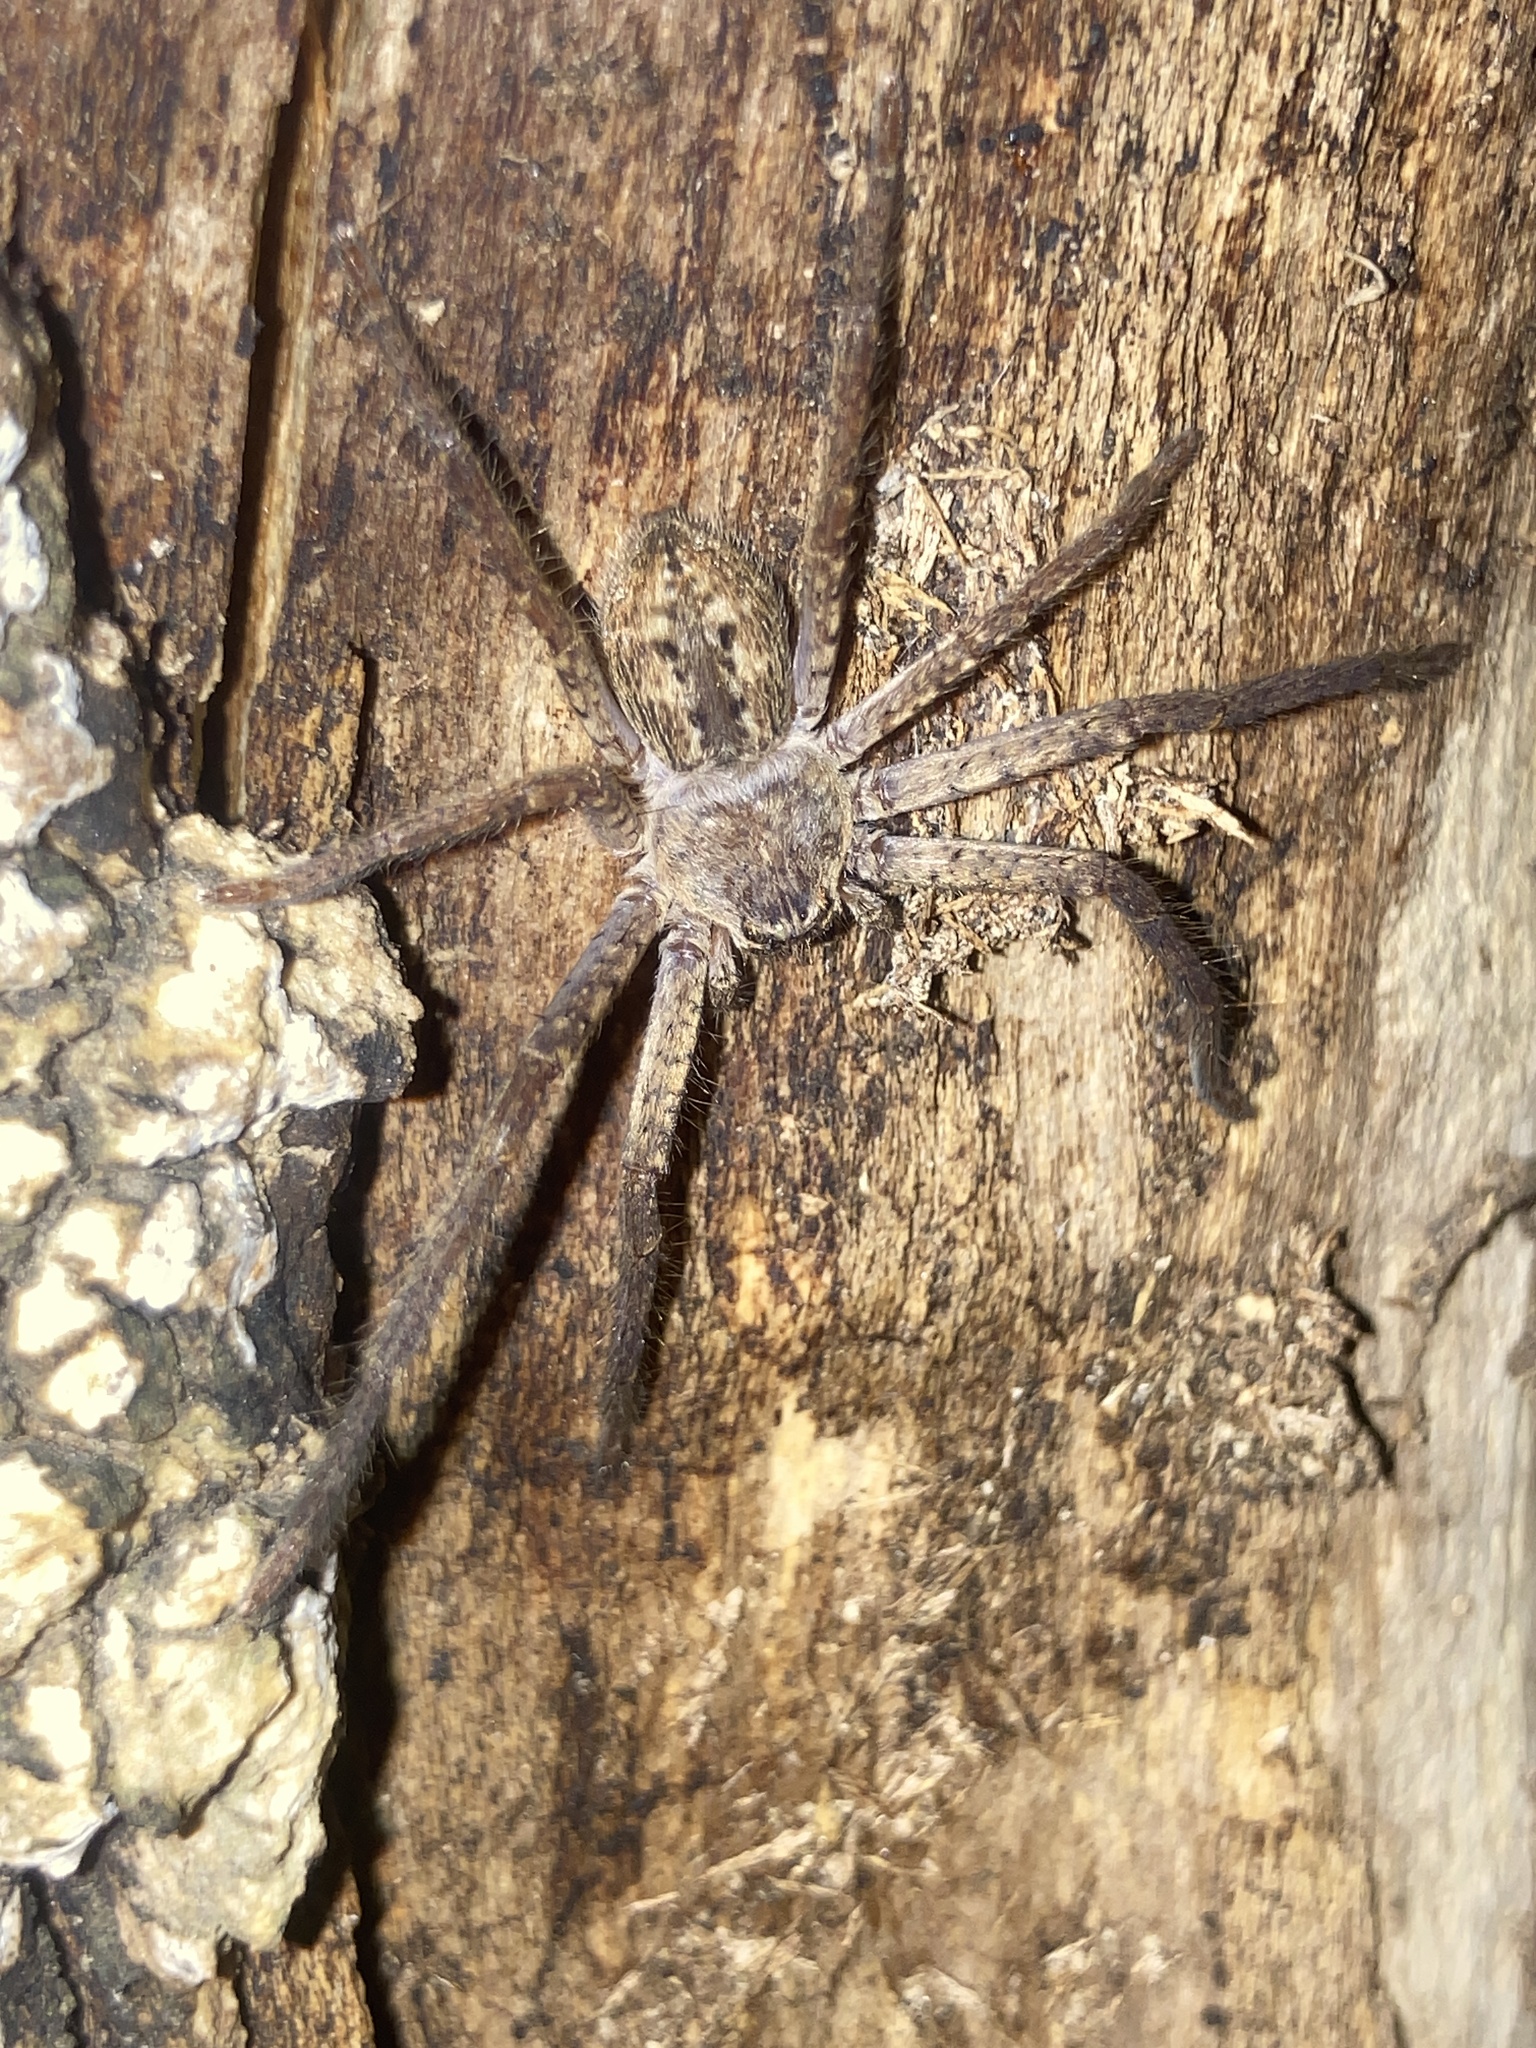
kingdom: Animalia
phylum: Arthropoda
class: Arachnida
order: Araneae
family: Sparassidae
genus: Isopeda
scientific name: Isopeda villosa
